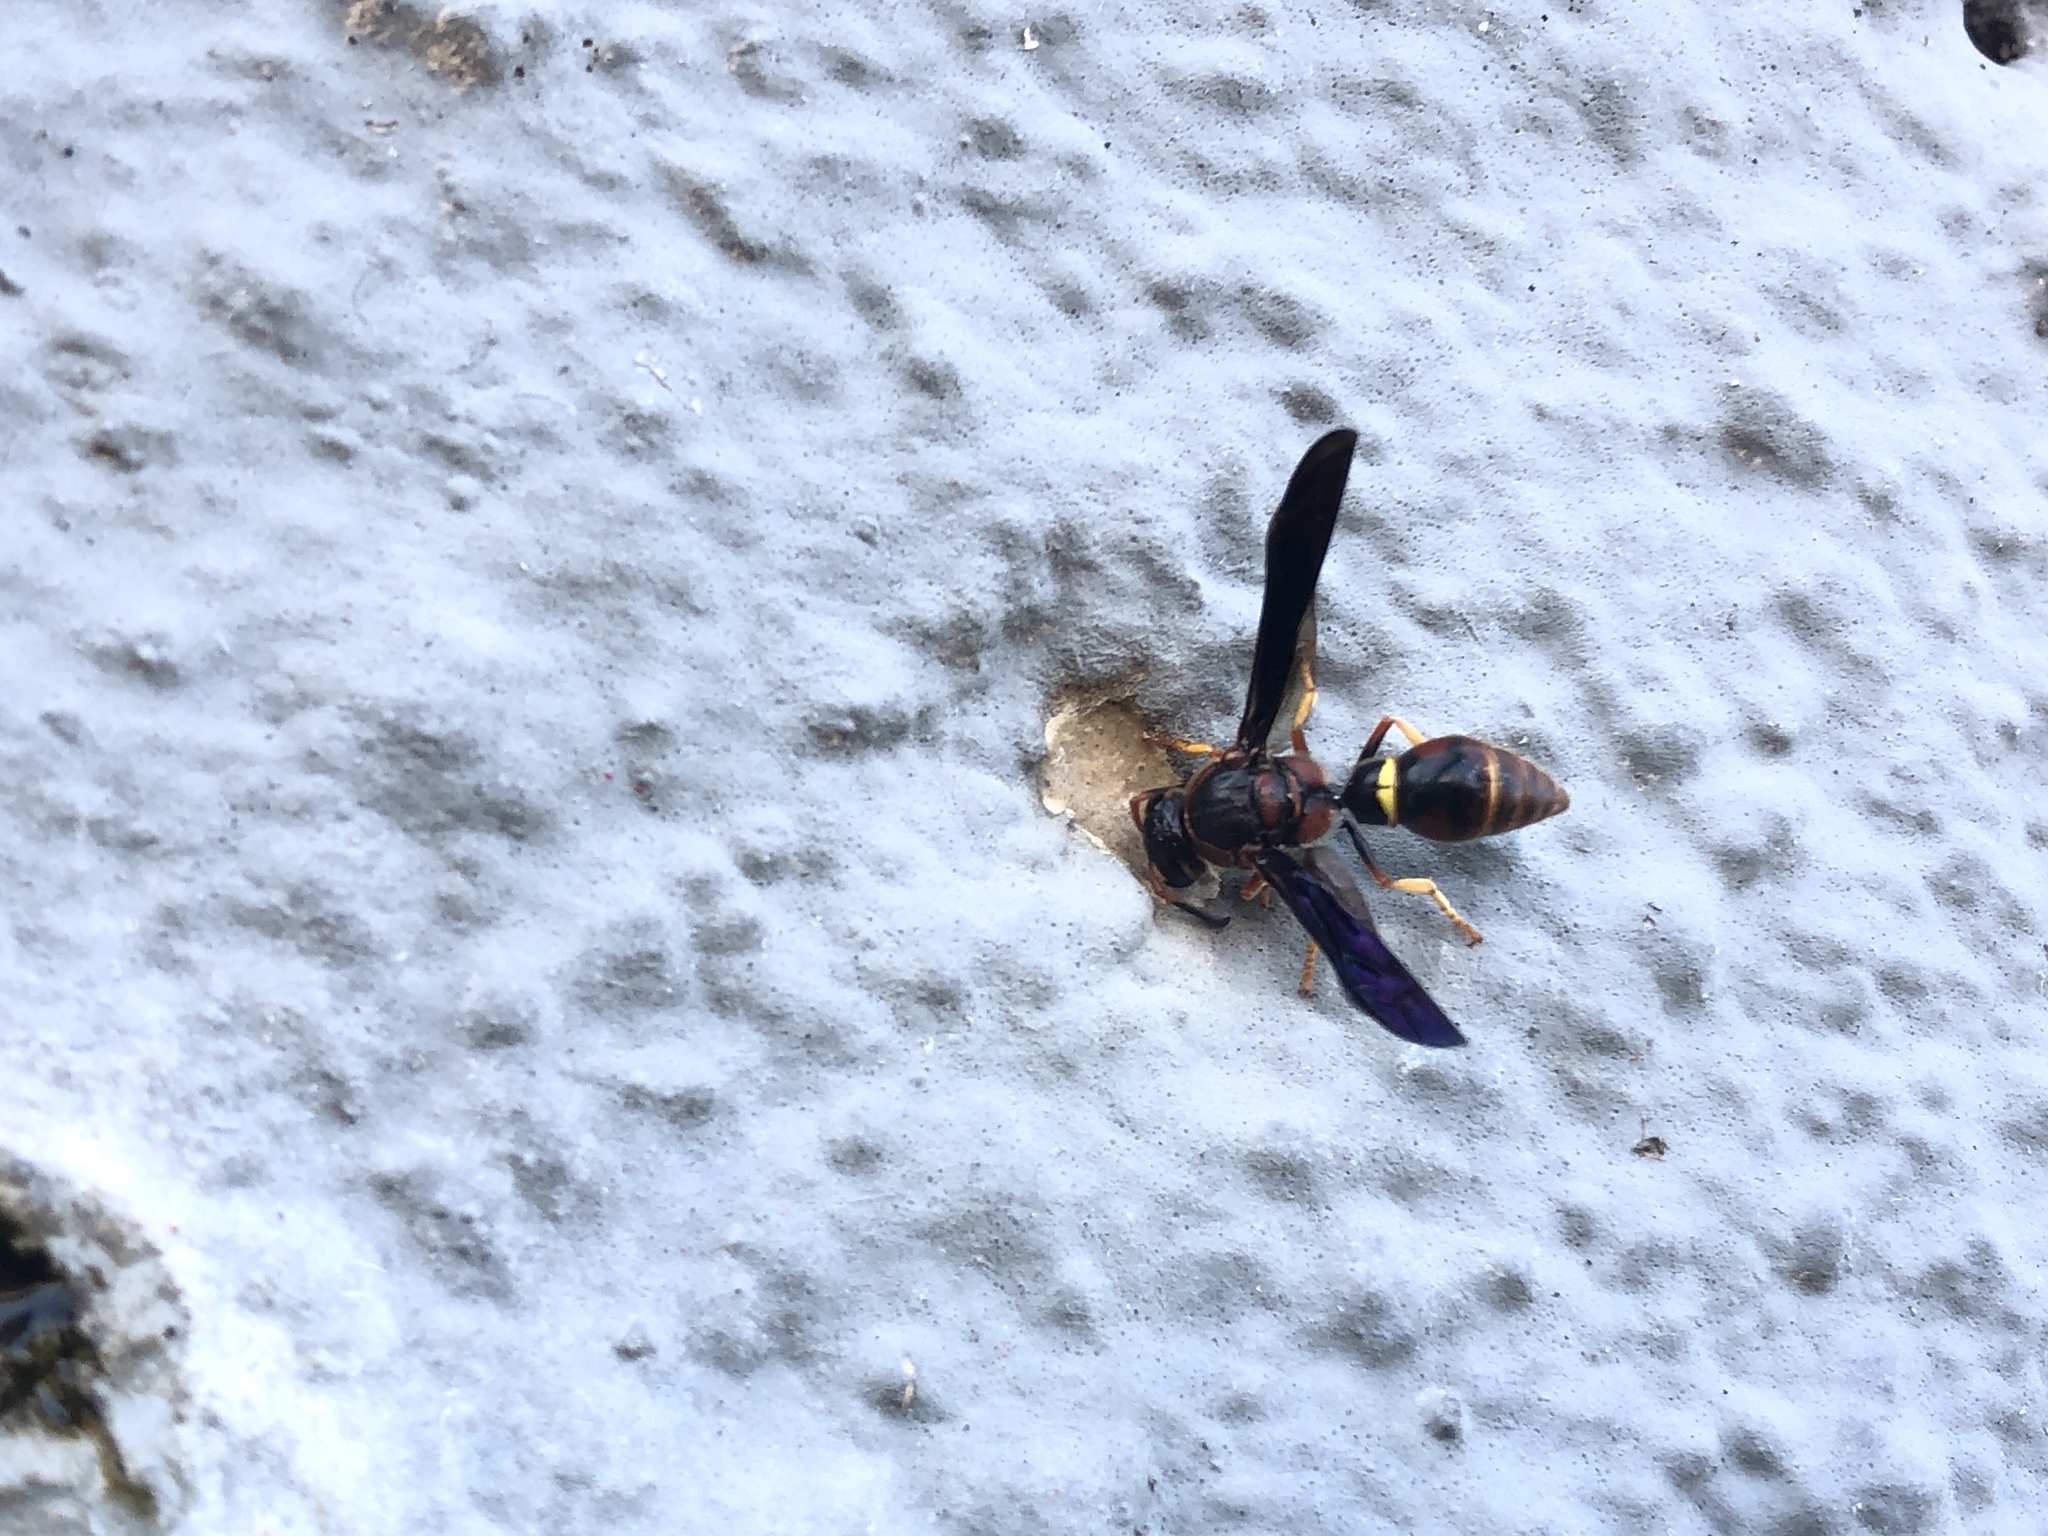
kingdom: Animalia
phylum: Arthropoda
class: Insecta
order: Hymenoptera
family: Eumenidae
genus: Parazumia
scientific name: Parazumia tolteca
